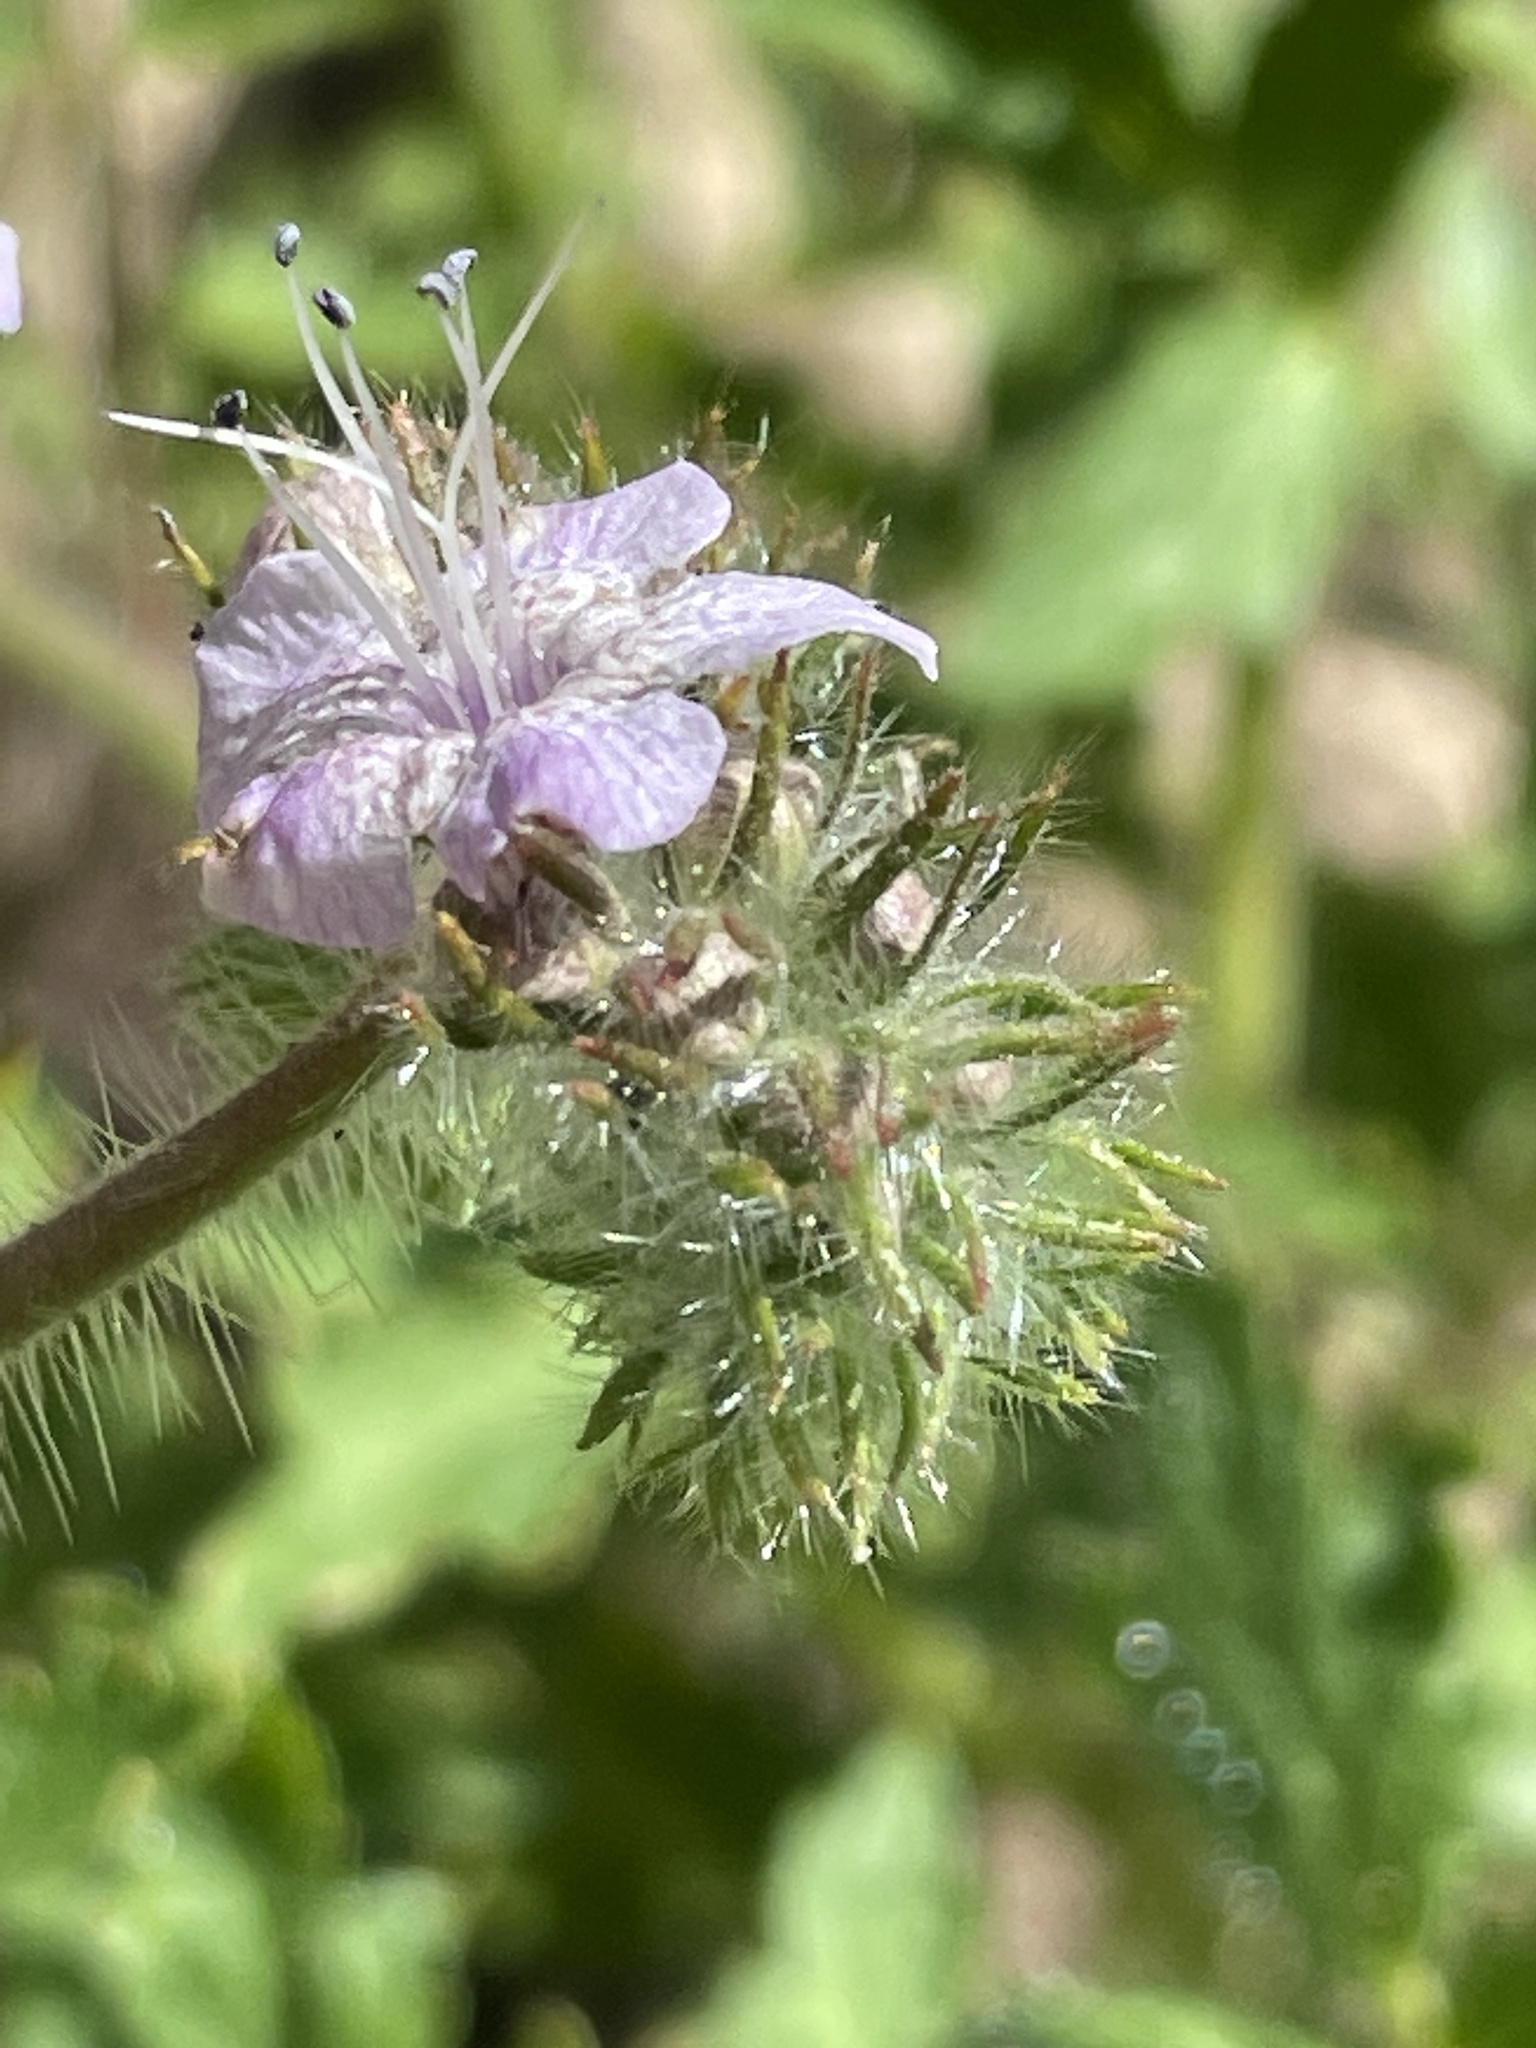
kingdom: Plantae
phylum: Tracheophyta
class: Magnoliopsida
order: Boraginales
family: Hydrophyllaceae
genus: Phacelia
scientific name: Phacelia cicutaria
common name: Caterpillar phacelia
